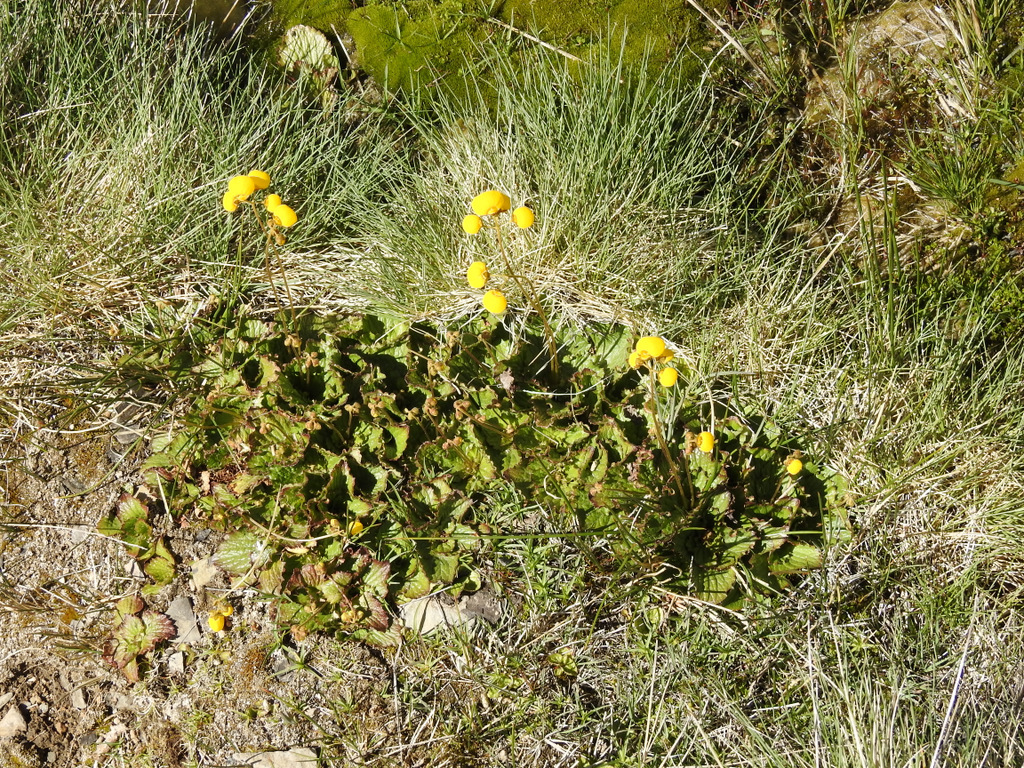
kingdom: Plantae
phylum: Tracheophyta
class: Magnoliopsida
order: Lamiales
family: Calceolariaceae
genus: Calceolaria
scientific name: Calceolaria filicaulis
